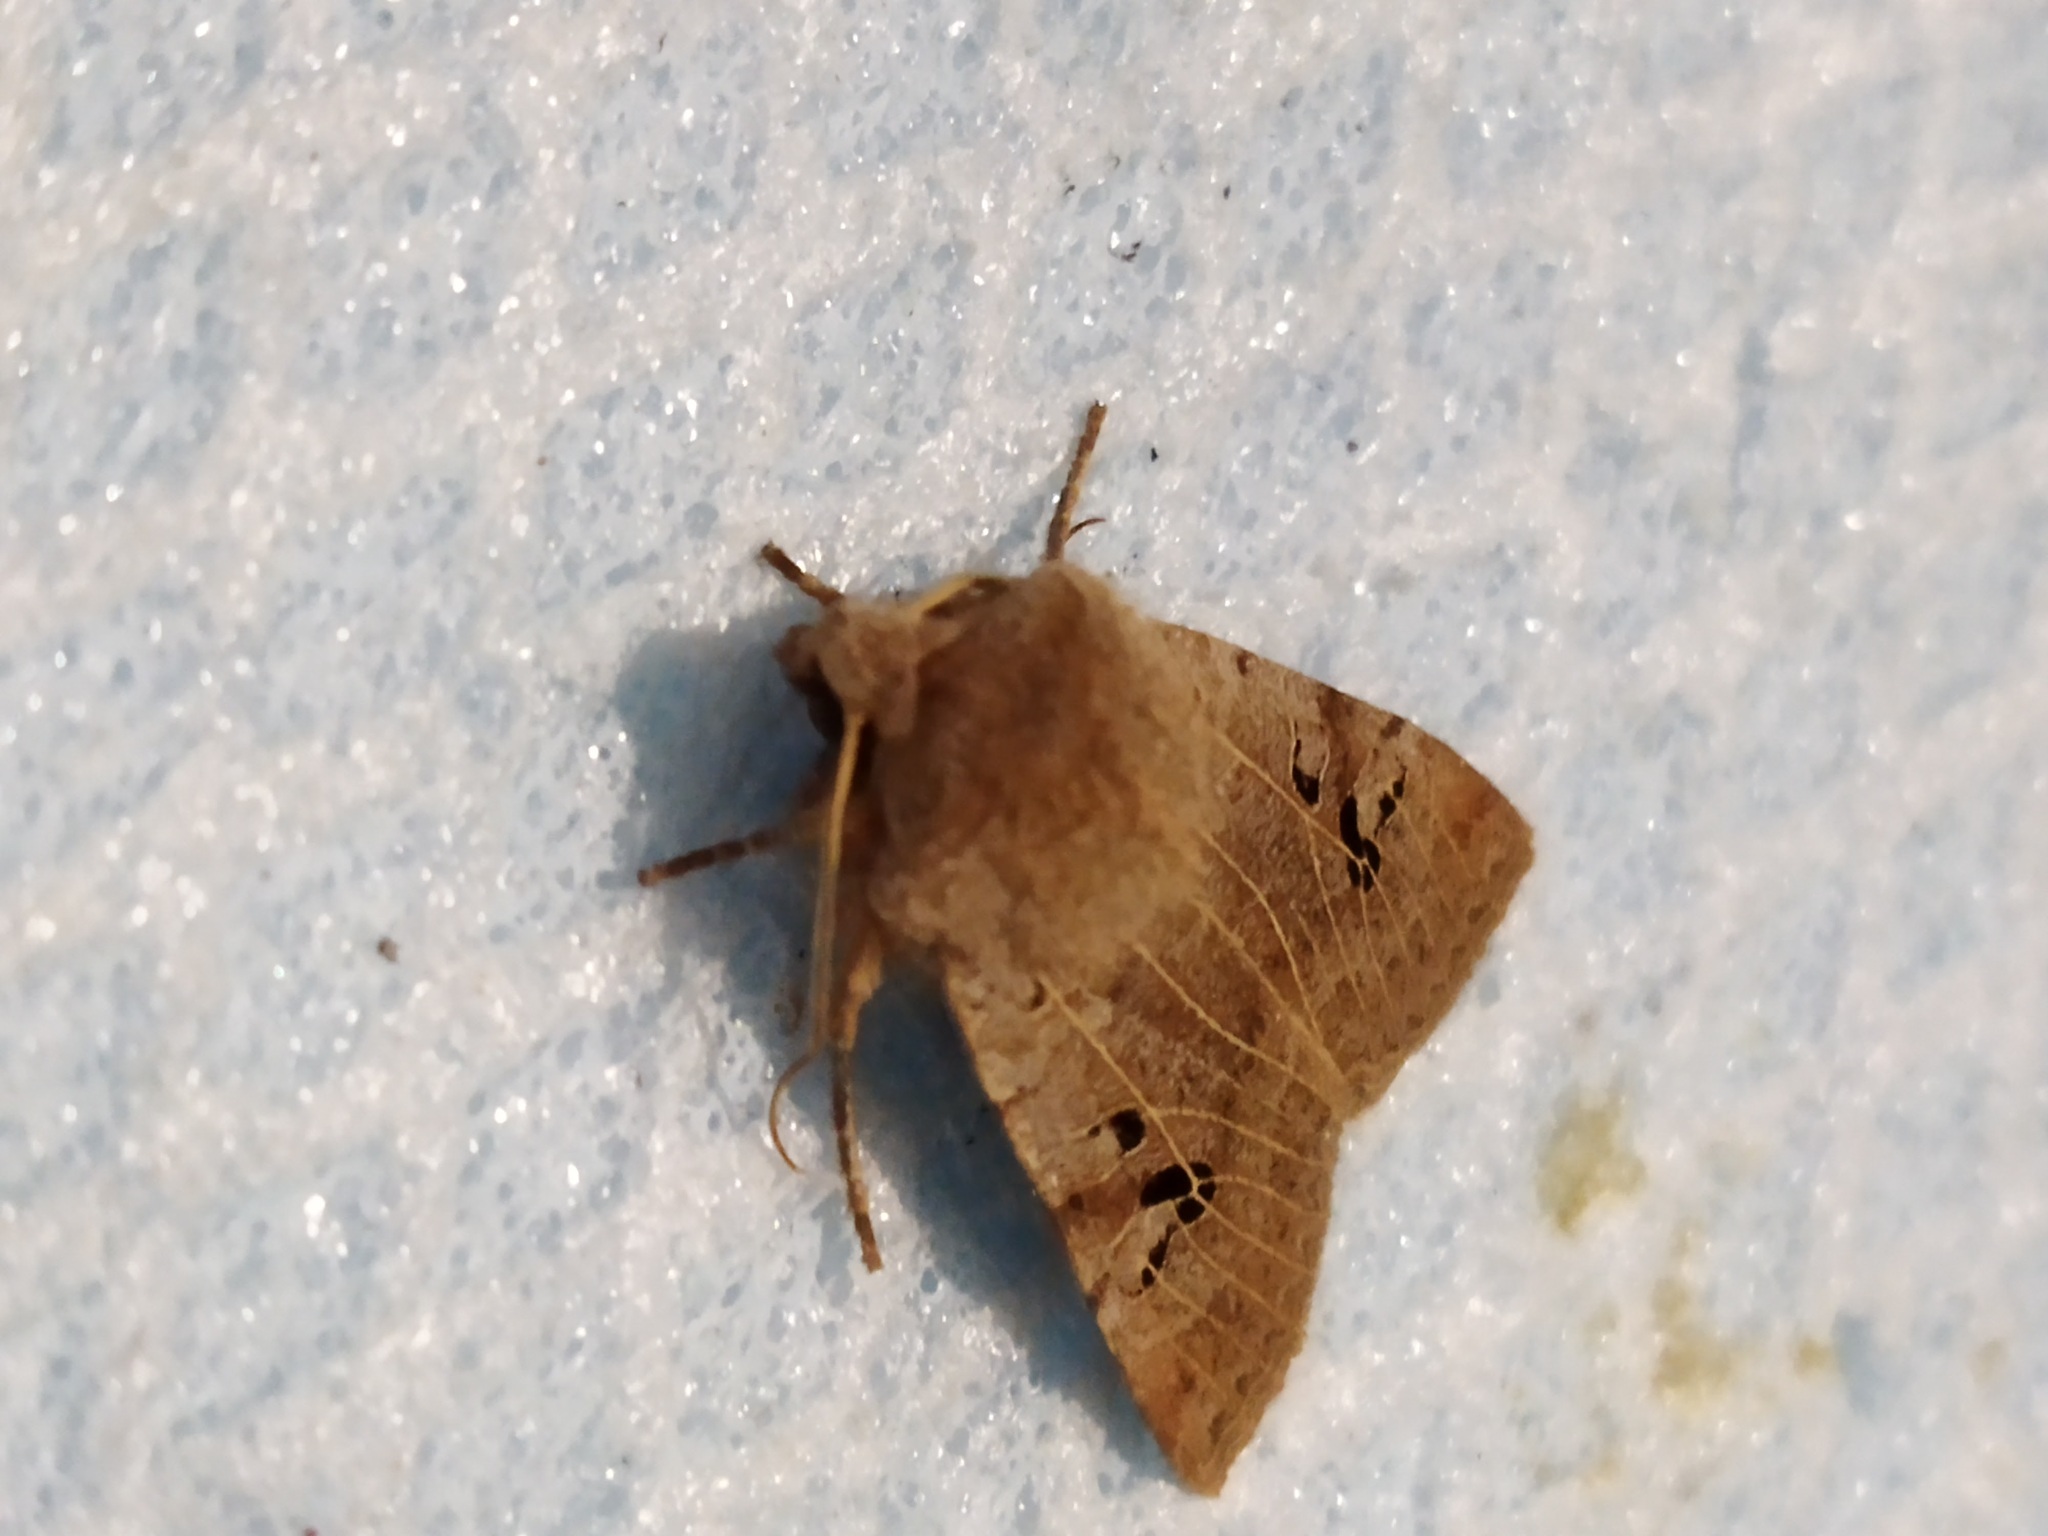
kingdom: Animalia
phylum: Arthropoda
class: Insecta
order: Lepidoptera
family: Noctuidae
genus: Conistra
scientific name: Conistra rubiginosa
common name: Black-spotted chestnut
